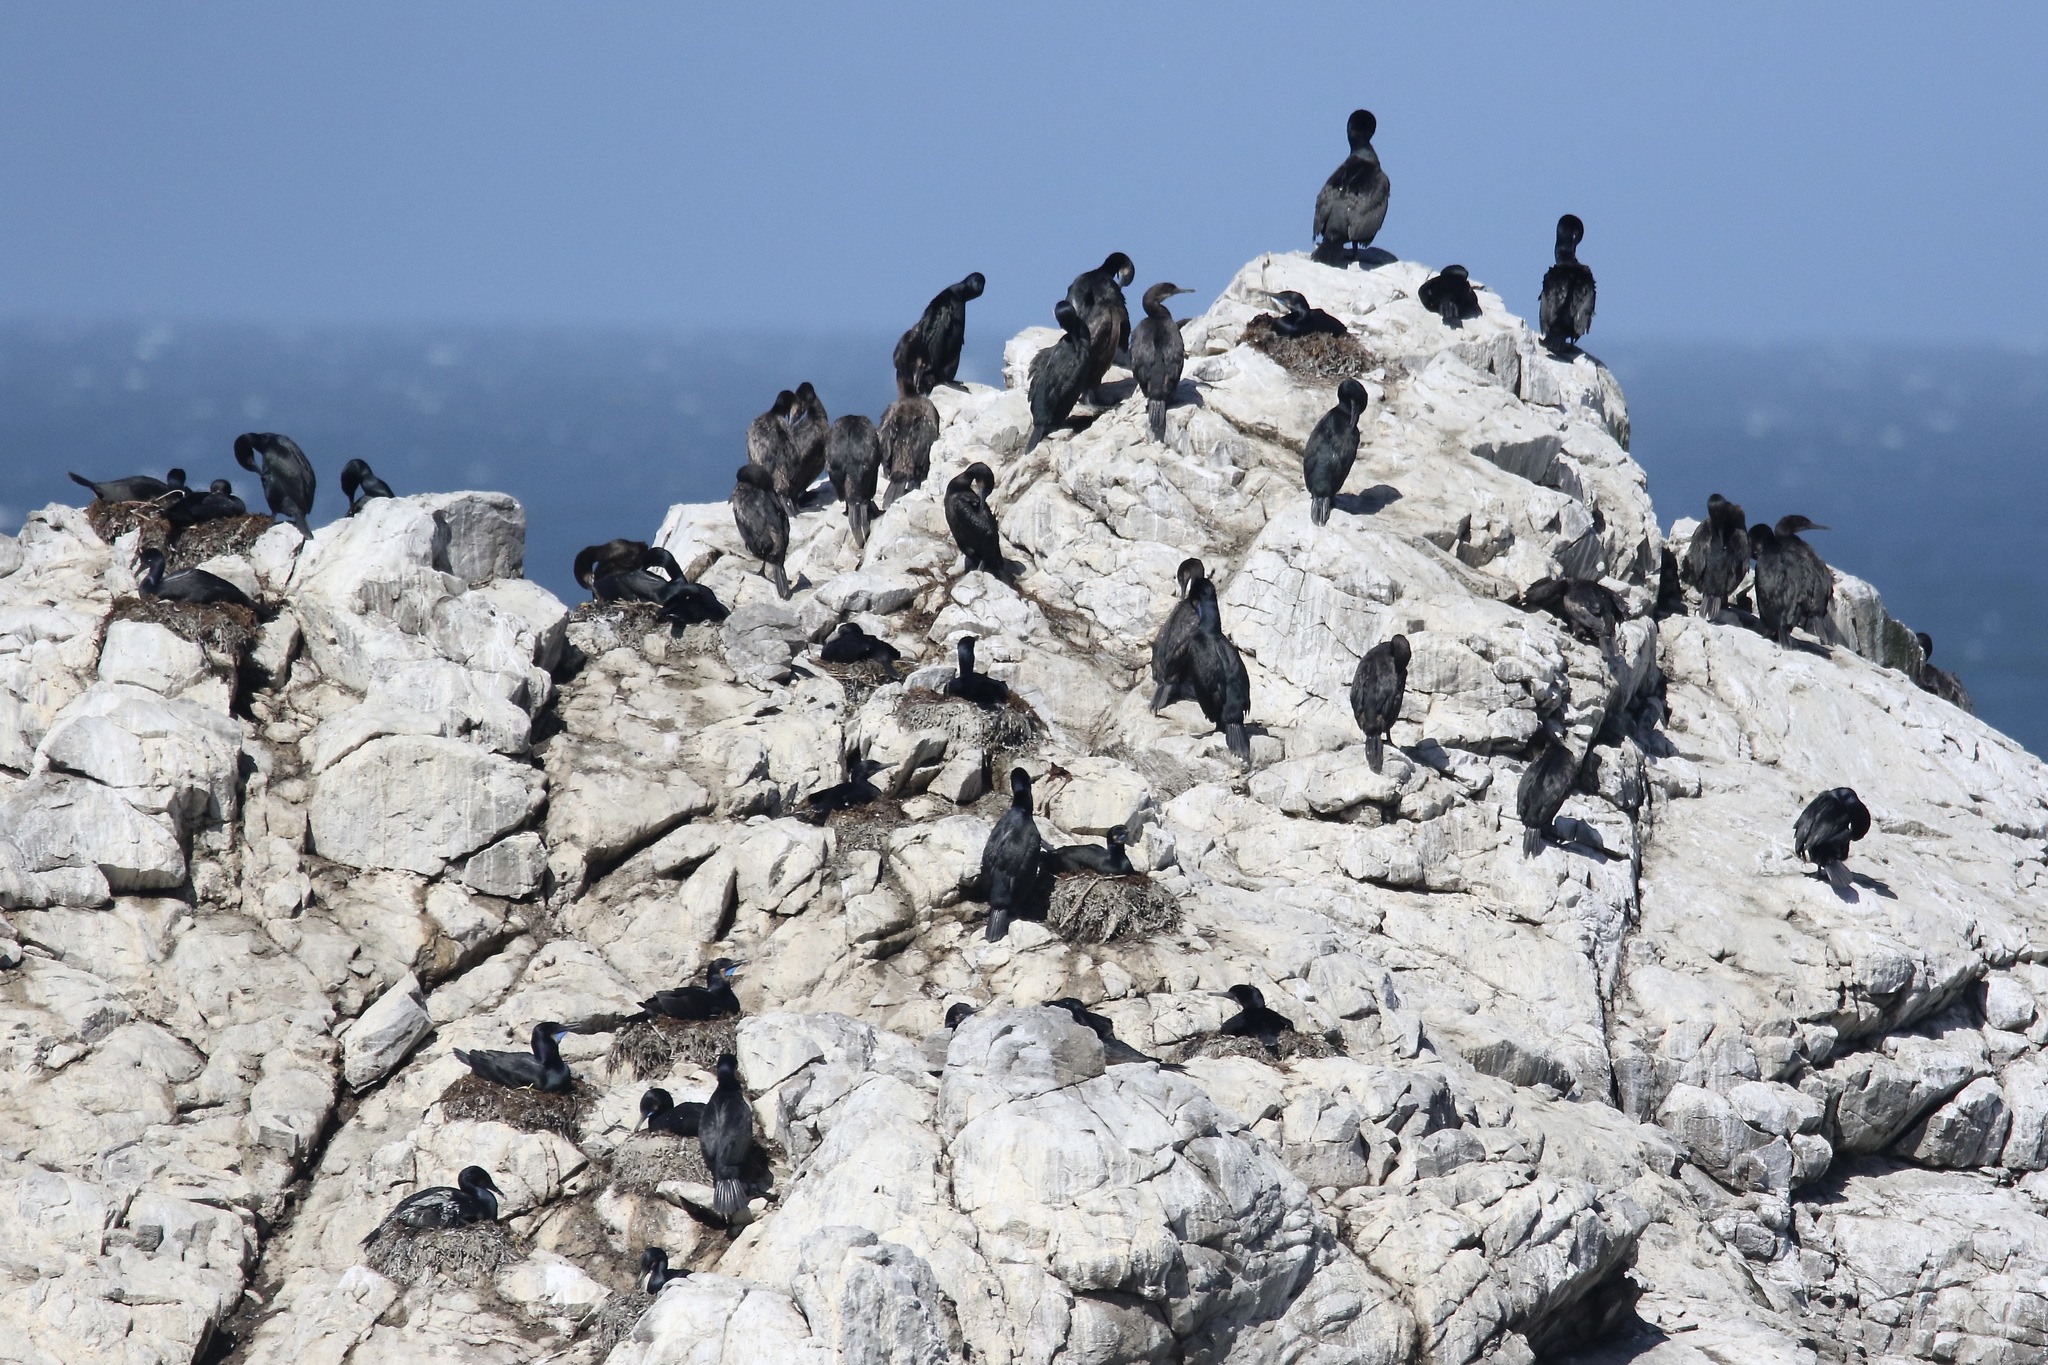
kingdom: Animalia
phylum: Chordata
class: Aves
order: Suliformes
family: Phalacrocoracidae
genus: Urile
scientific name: Urile penicillatus
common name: Brandt's cormorant
